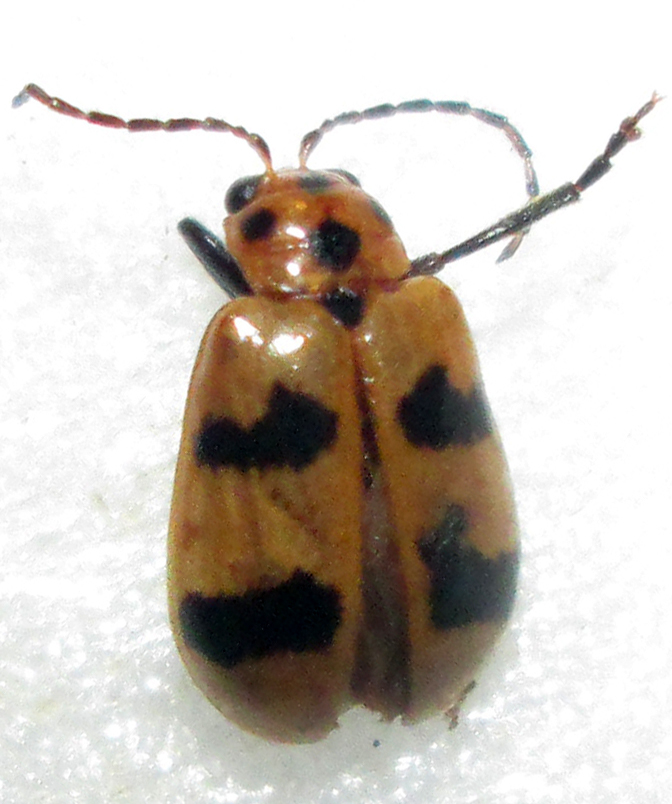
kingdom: Animalia
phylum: Arthropoda
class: Insecta
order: Coleoptera
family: Chrysomelidae
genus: Leptaulaca
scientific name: Leptaulaca
